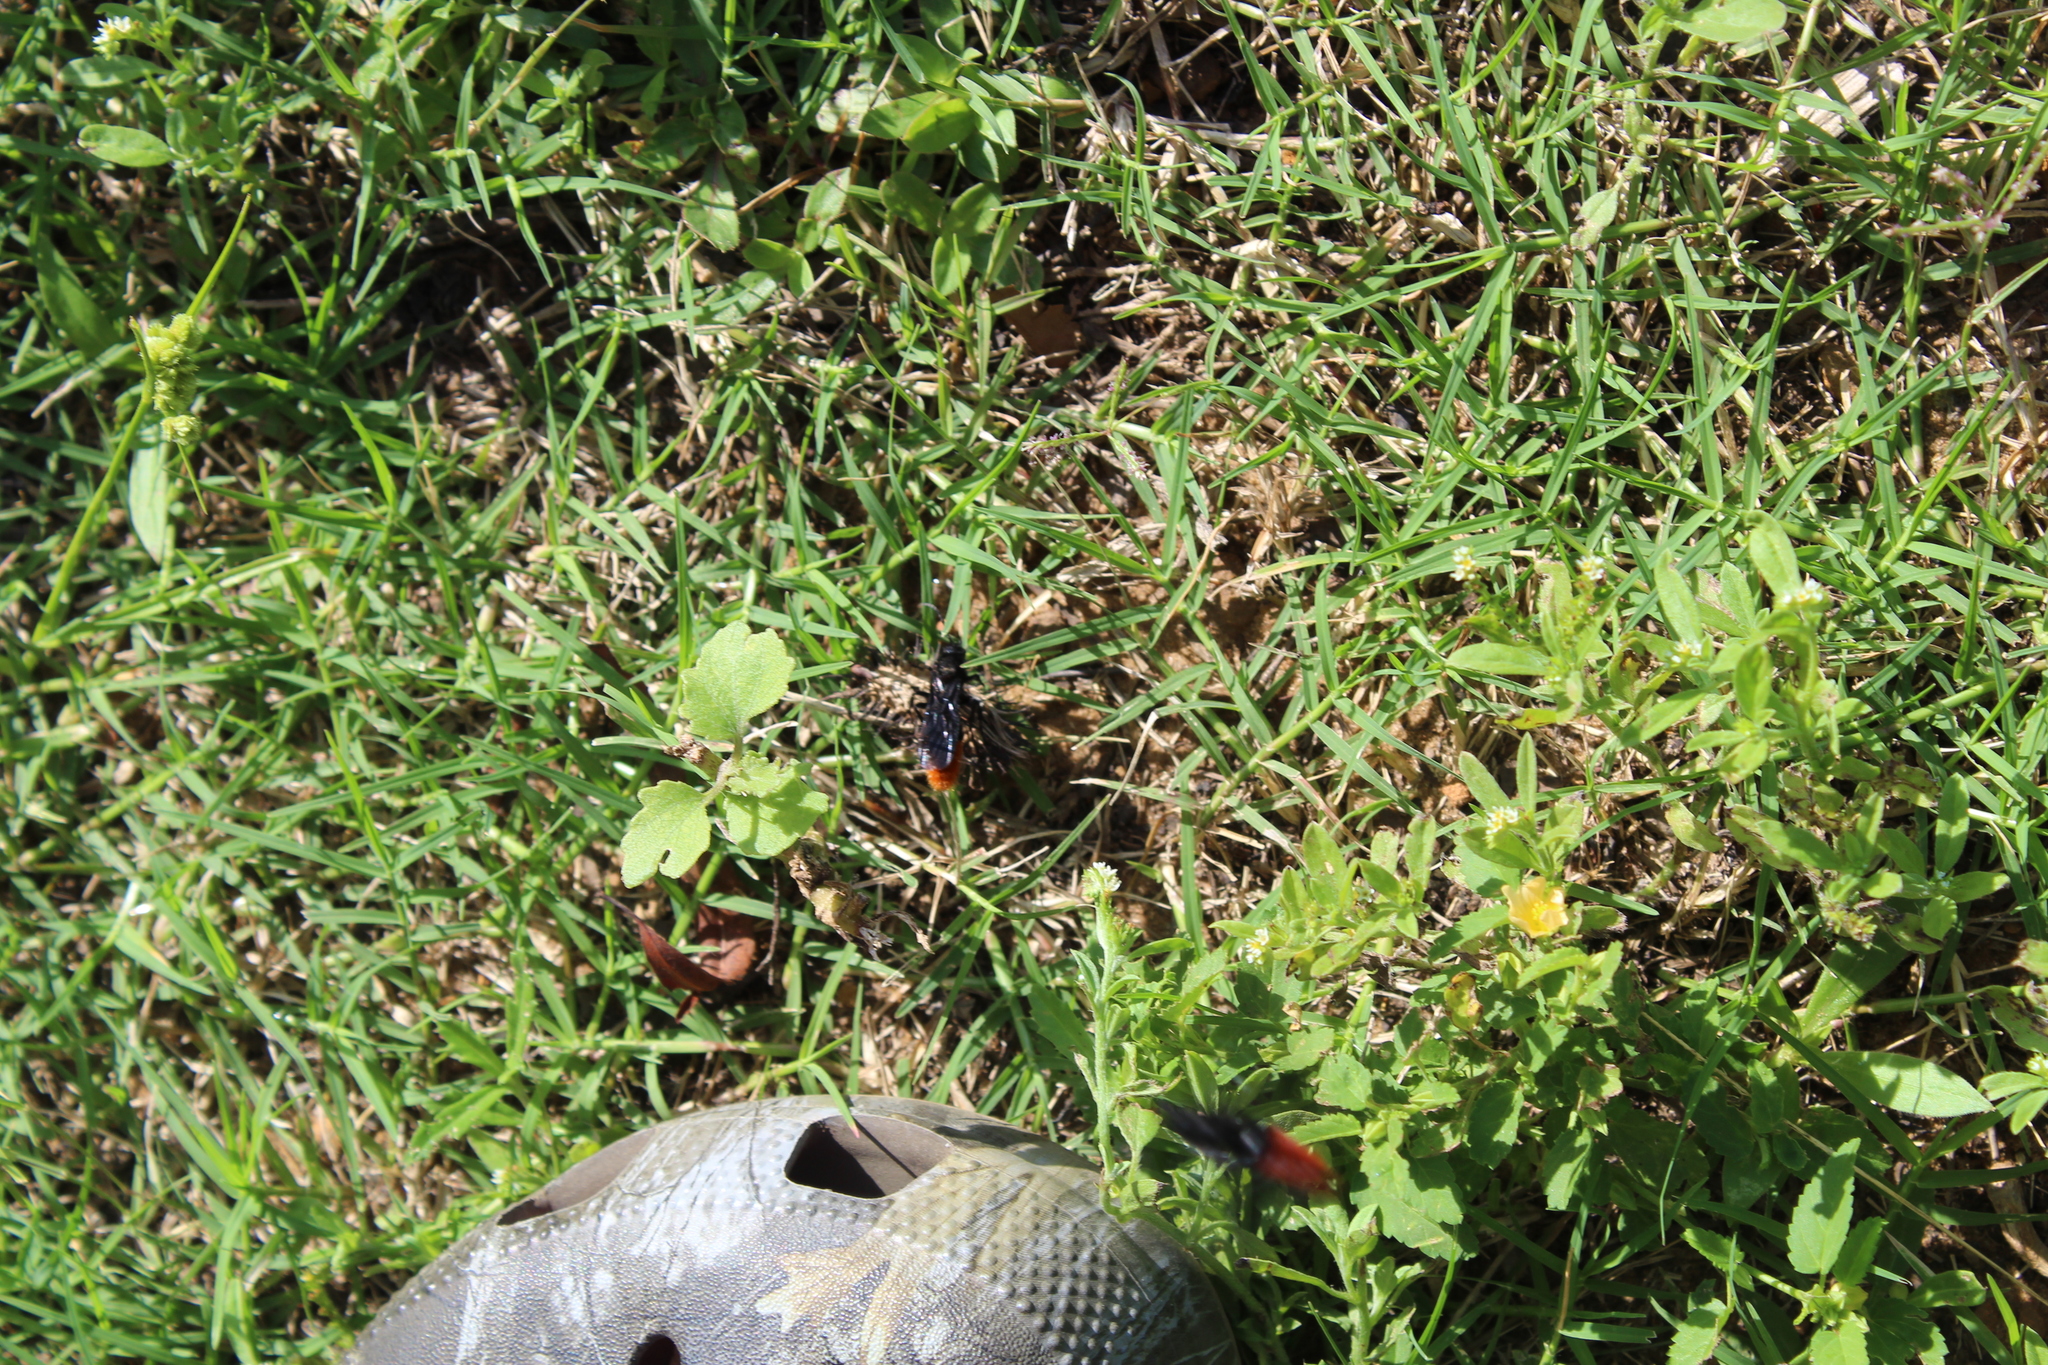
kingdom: Animalia
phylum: Arthropoda
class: Insecta
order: Hymenoptera
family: Mutillidae
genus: Dasymutilla
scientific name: Dasymutilla
